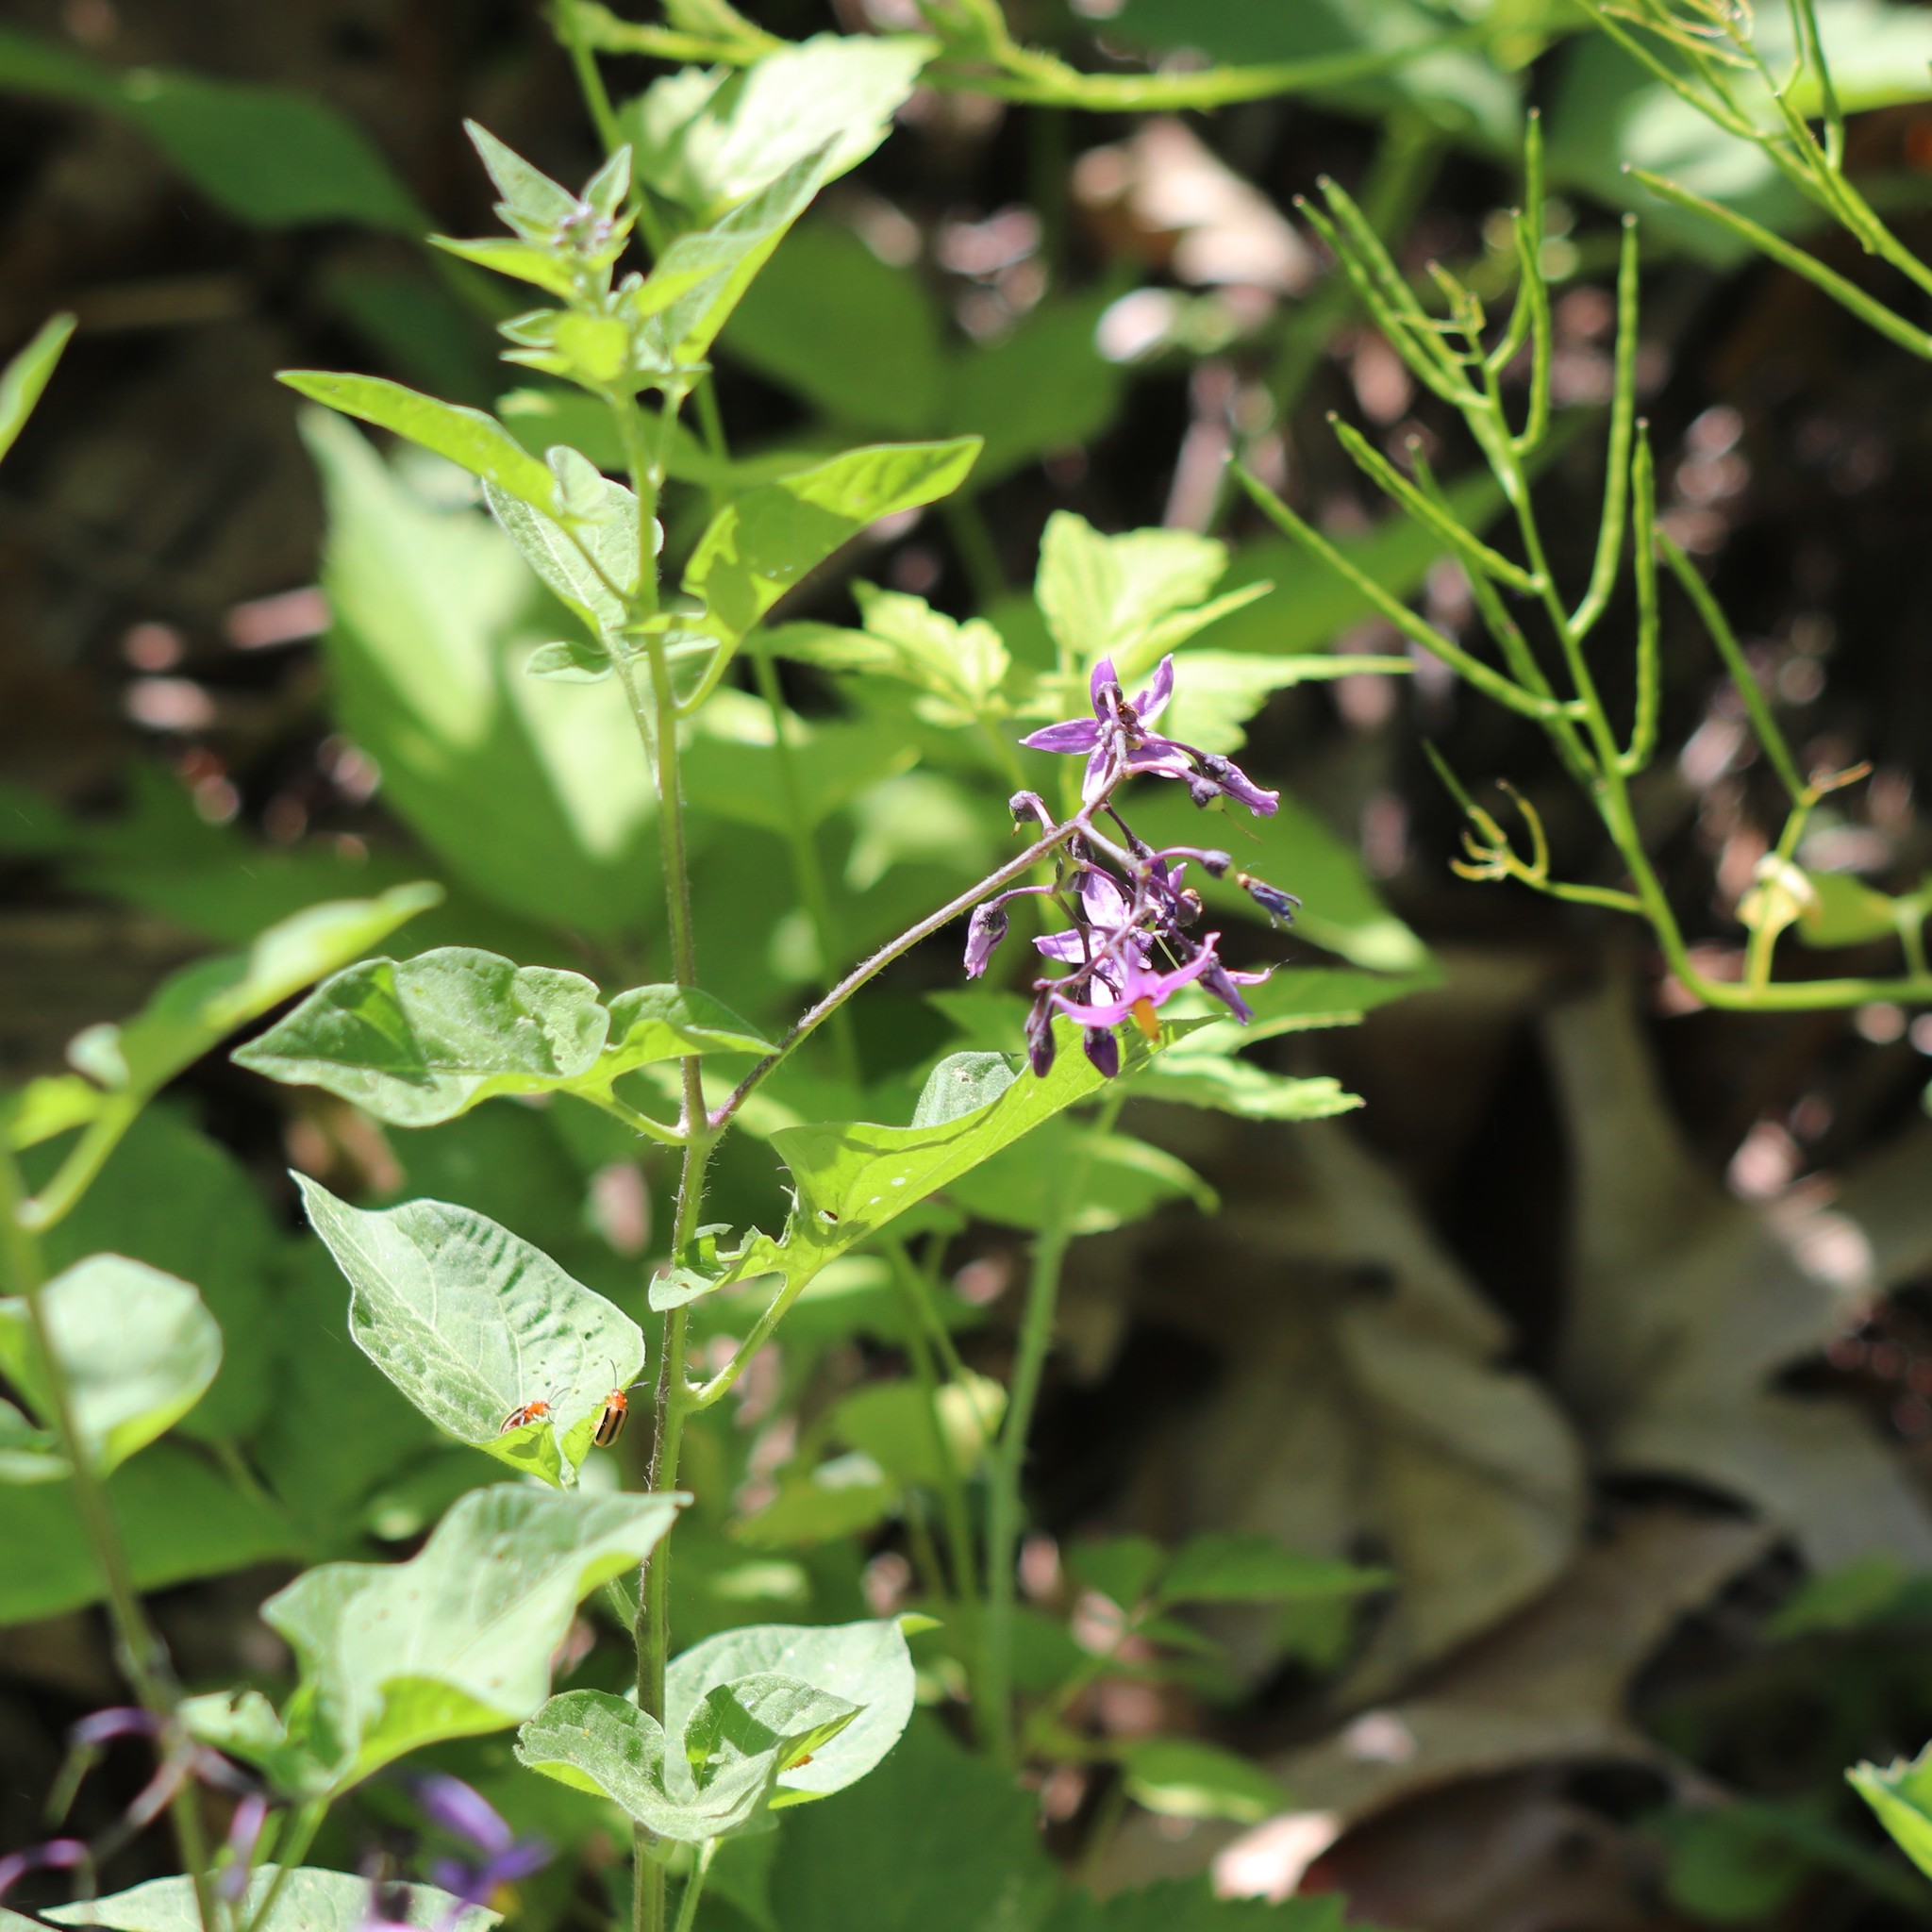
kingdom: Plantae
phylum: Tracheophyta
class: Magnoliopsida
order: Solanales
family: Solanaceae
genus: Solanum
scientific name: Solanum dulcamara
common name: Climbing nightshade
